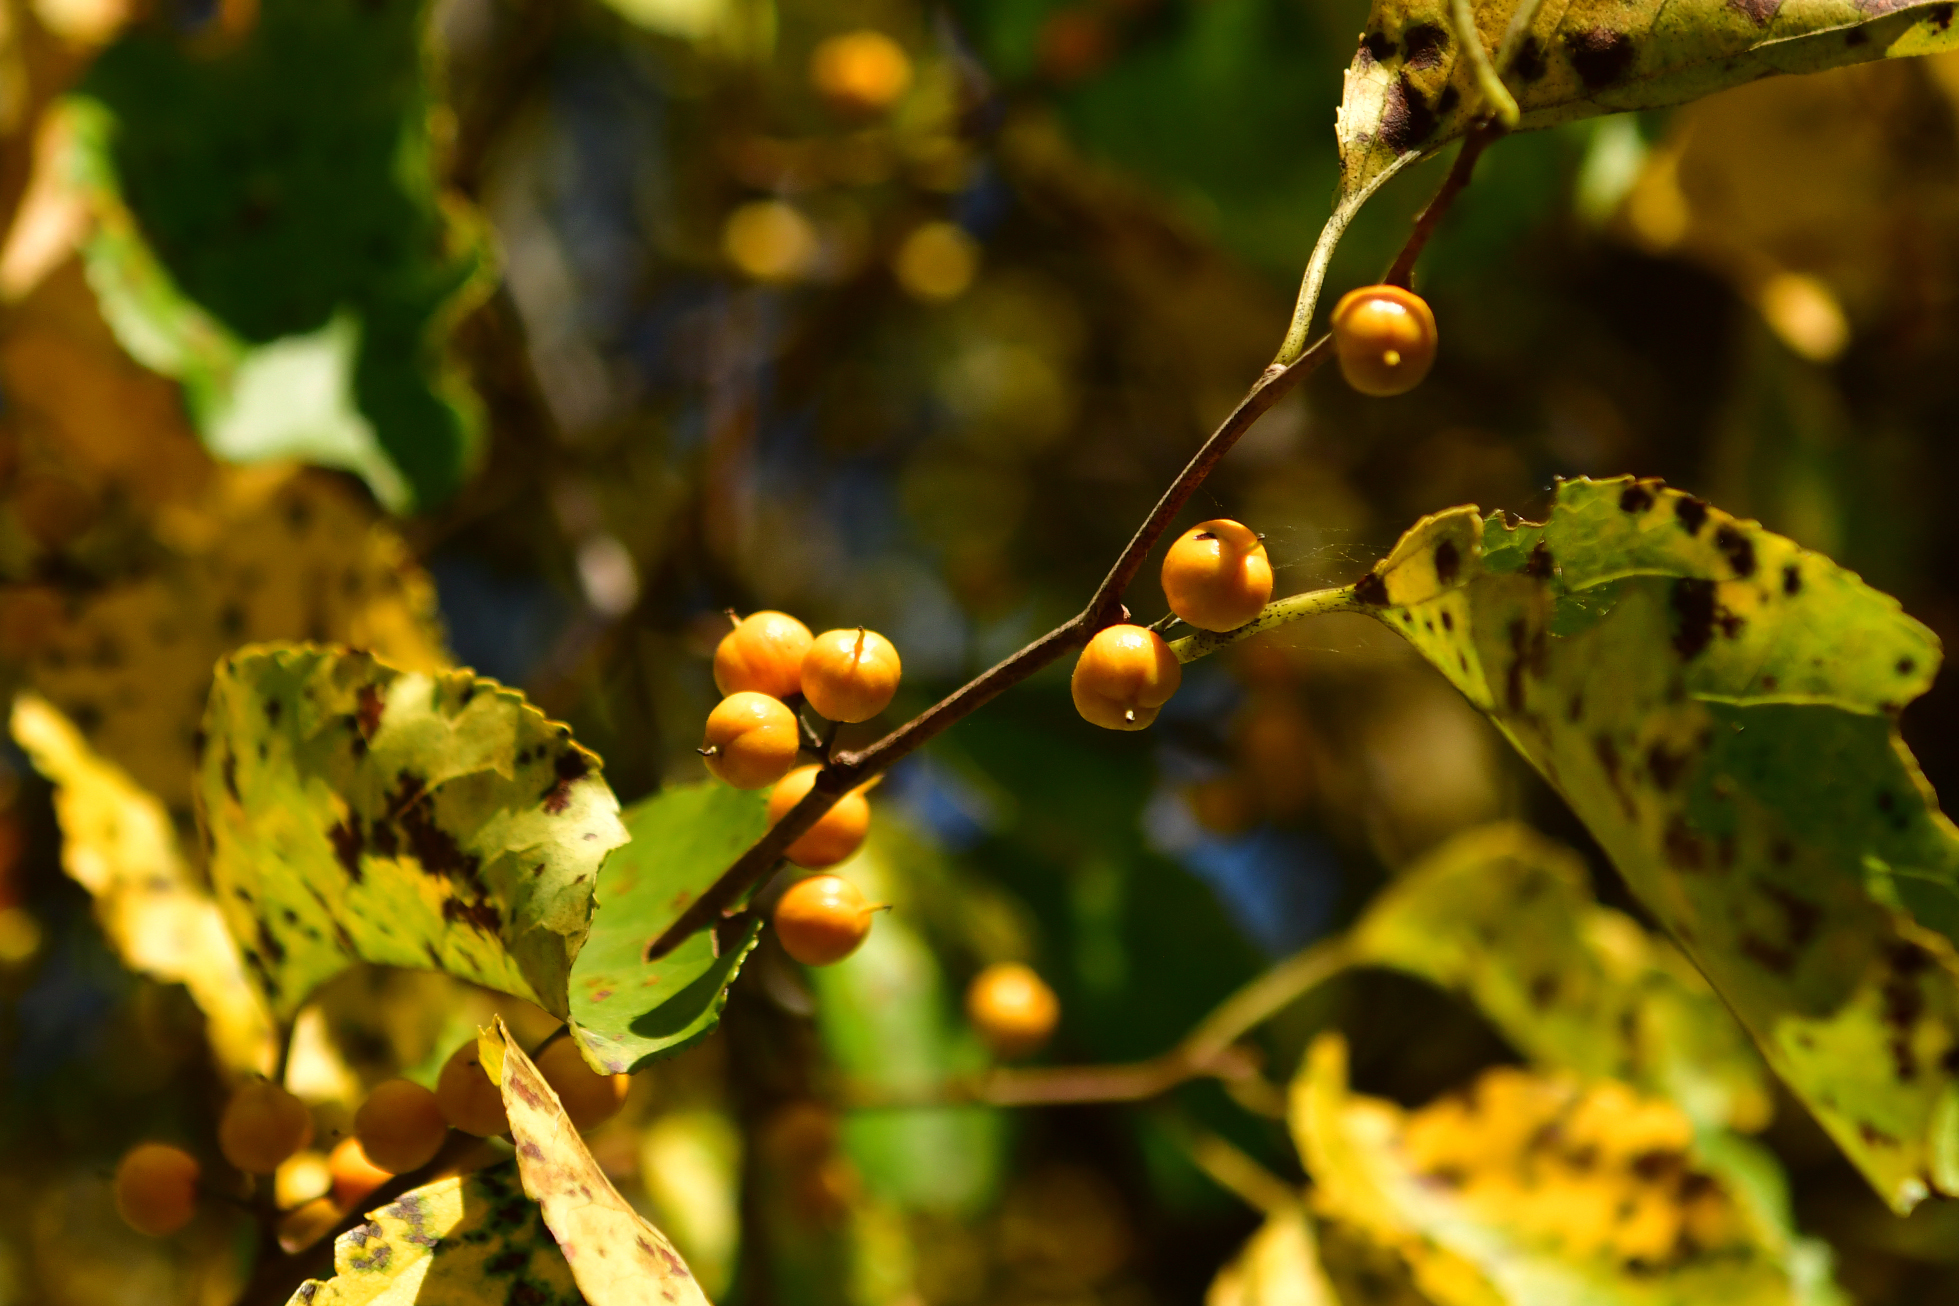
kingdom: Plantae
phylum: Tracheophyta
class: Magnoliopsida
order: Celastrales
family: Celastraceae
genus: Celastrus
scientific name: Celastrus orbiculatus
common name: Oriental bittersweet
